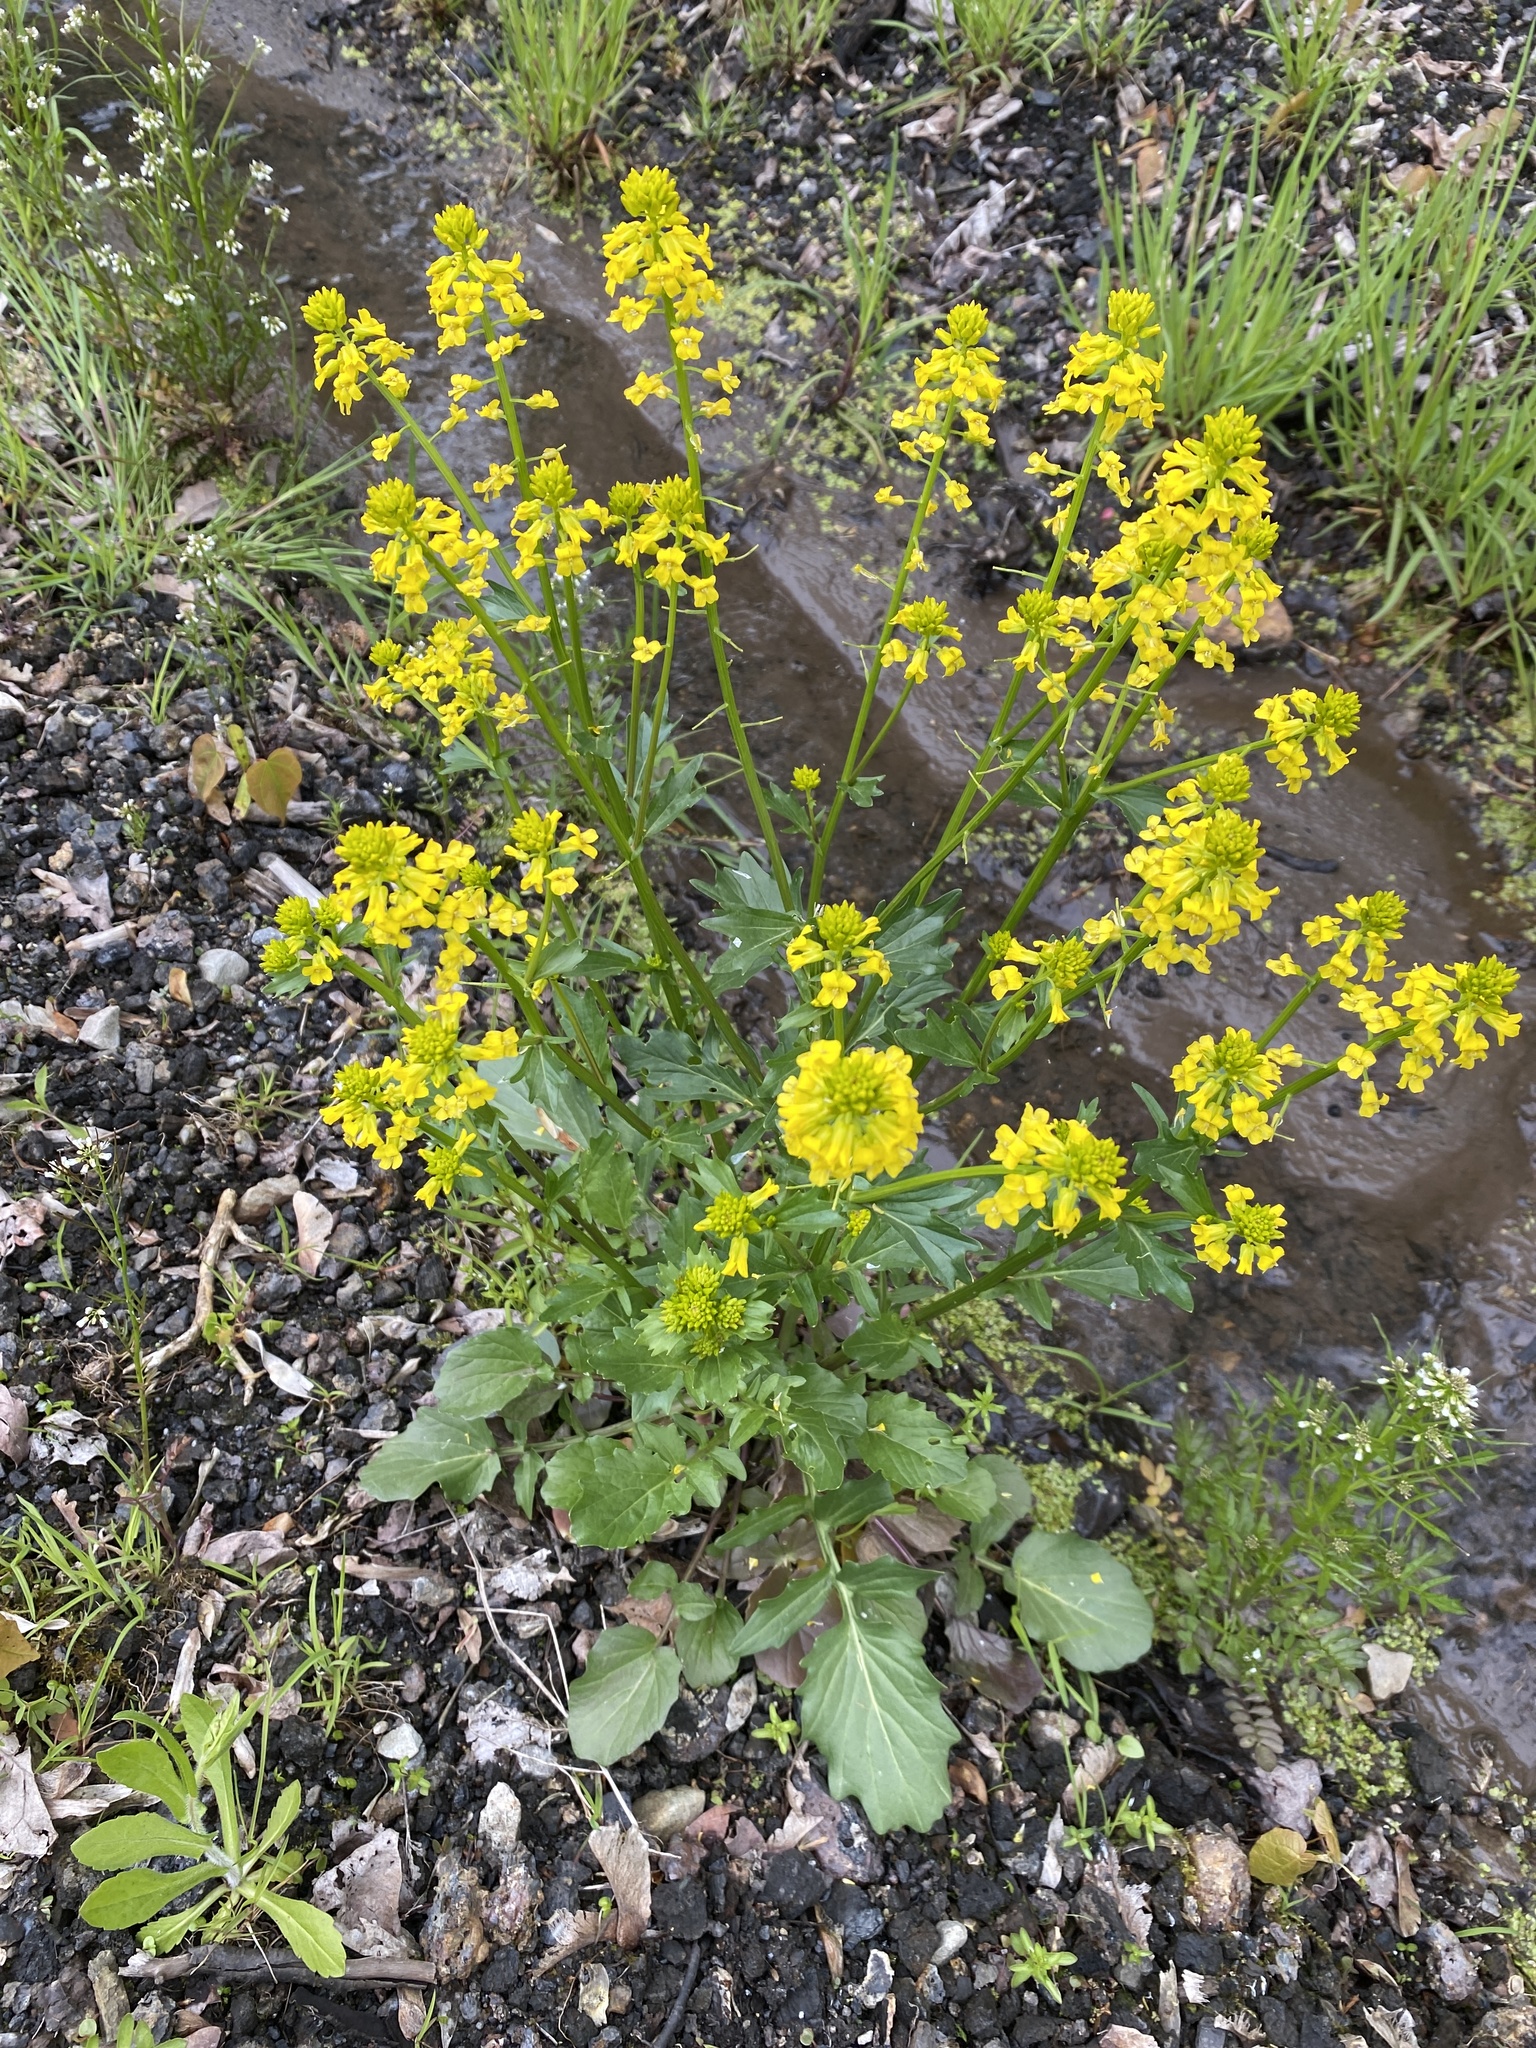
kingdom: Plantae
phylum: Tracheophyta
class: Magnoliopsida
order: Brassicales
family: Brassicaceae
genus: Barbarea
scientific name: Barbarea vulgaris
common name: Cressy-greens
